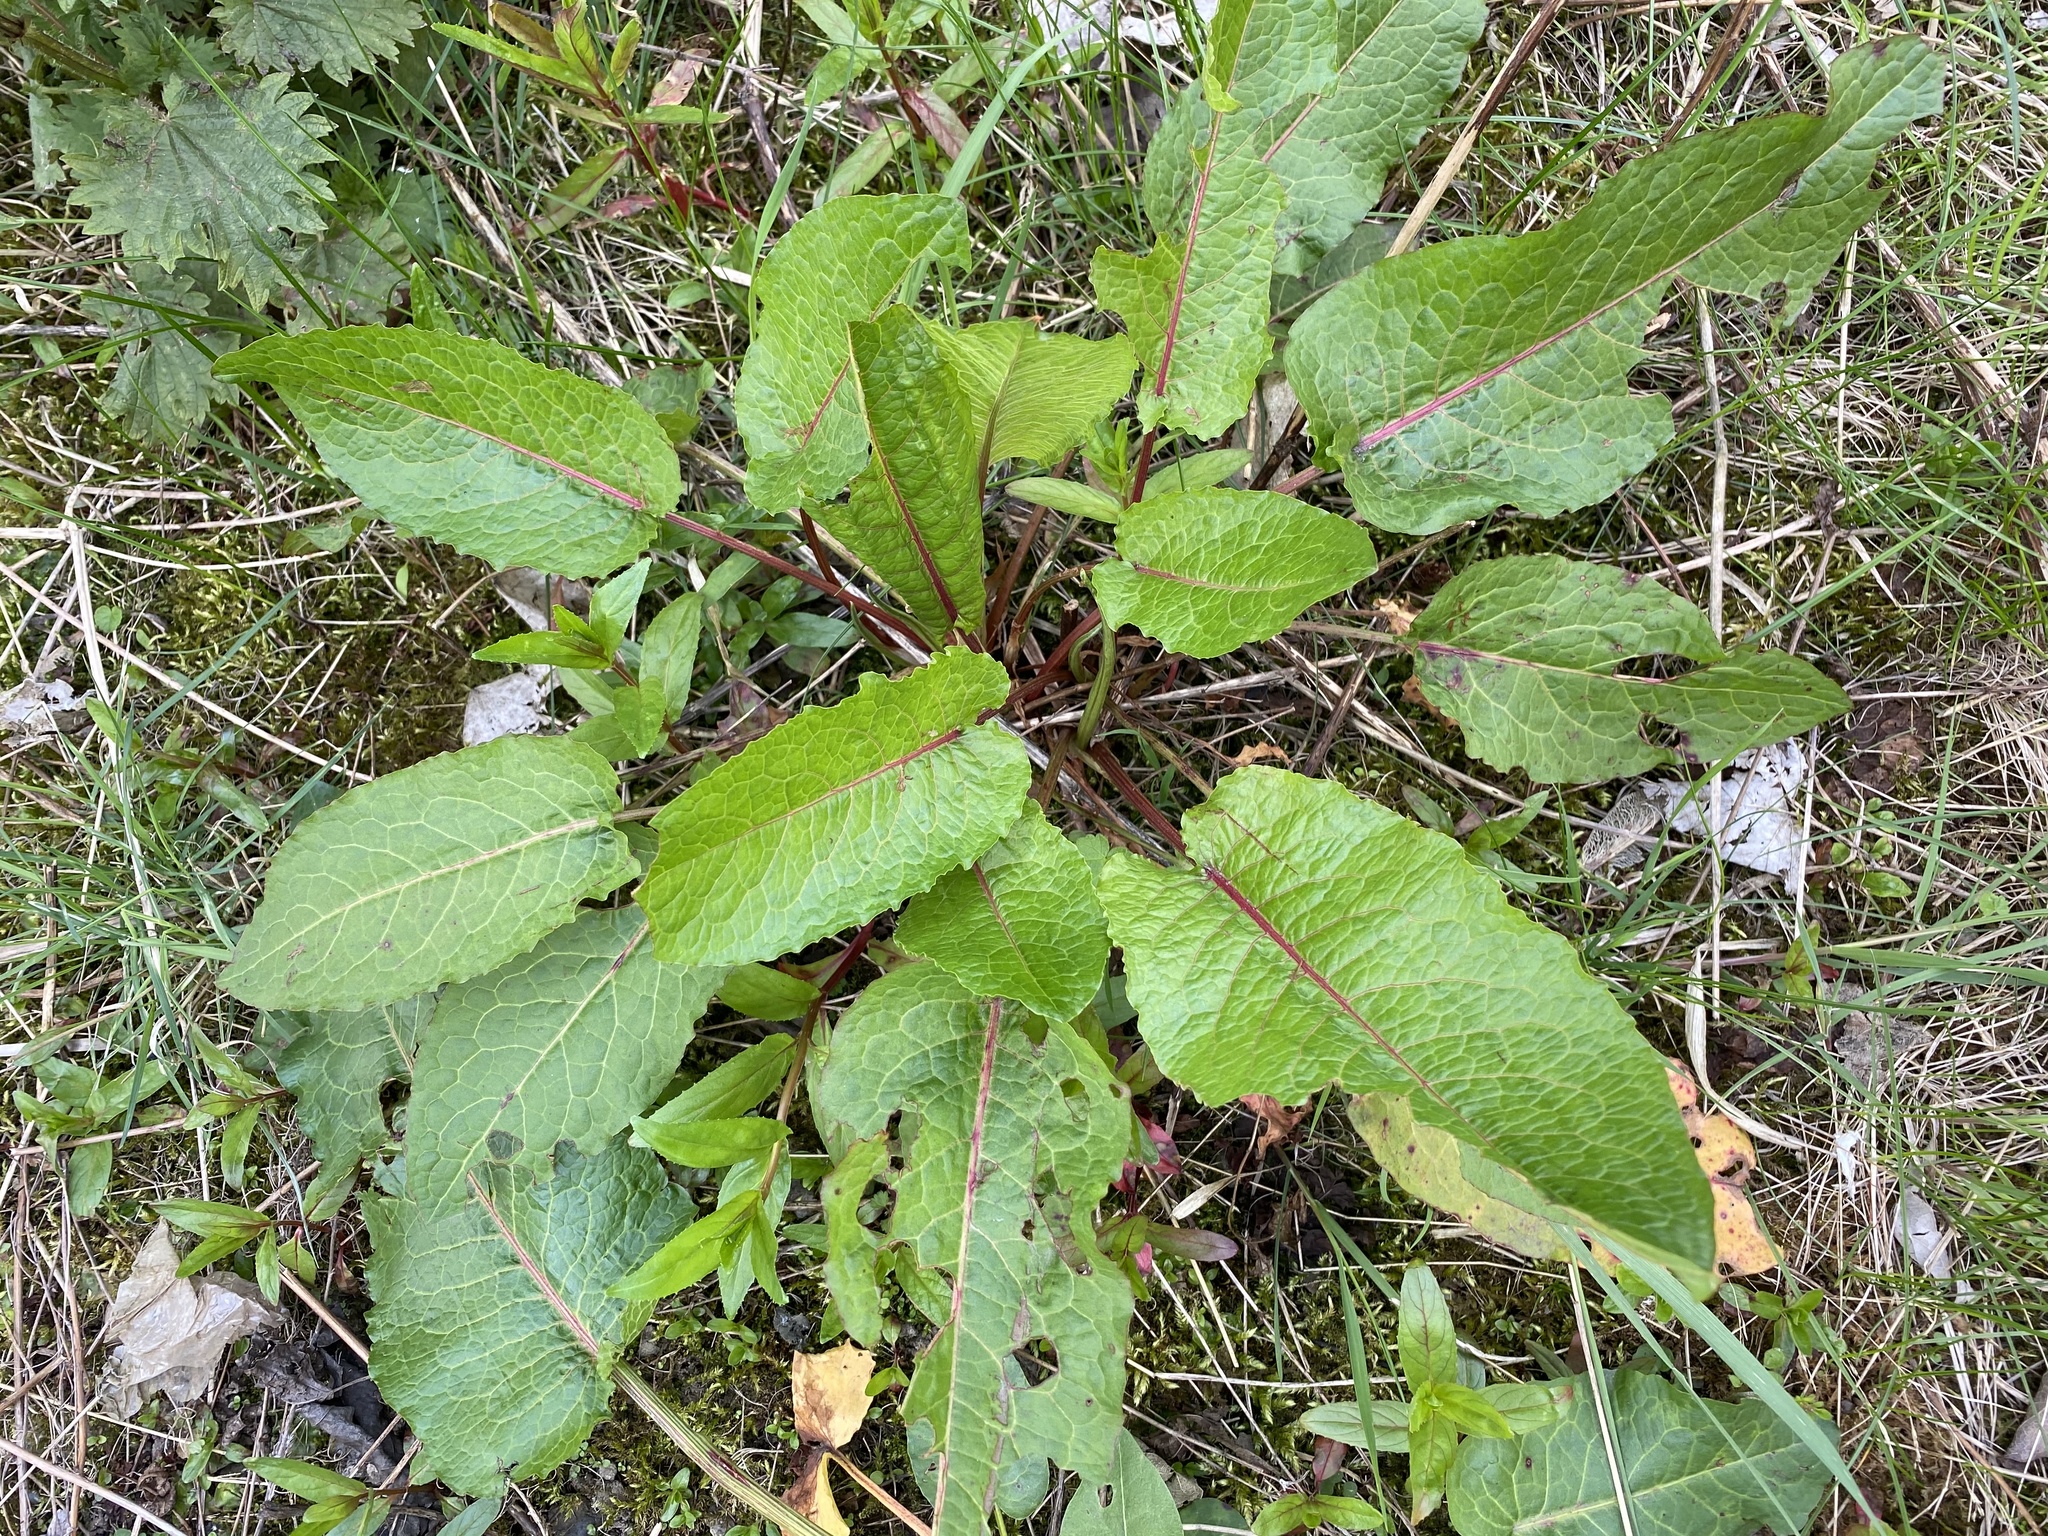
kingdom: Plantae
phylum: Tracheophyta
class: Magnoliopsida
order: Caryophyllales
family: Polygonaceae
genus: Rumex
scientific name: Rumex obtusifolius
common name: Bitter dock
